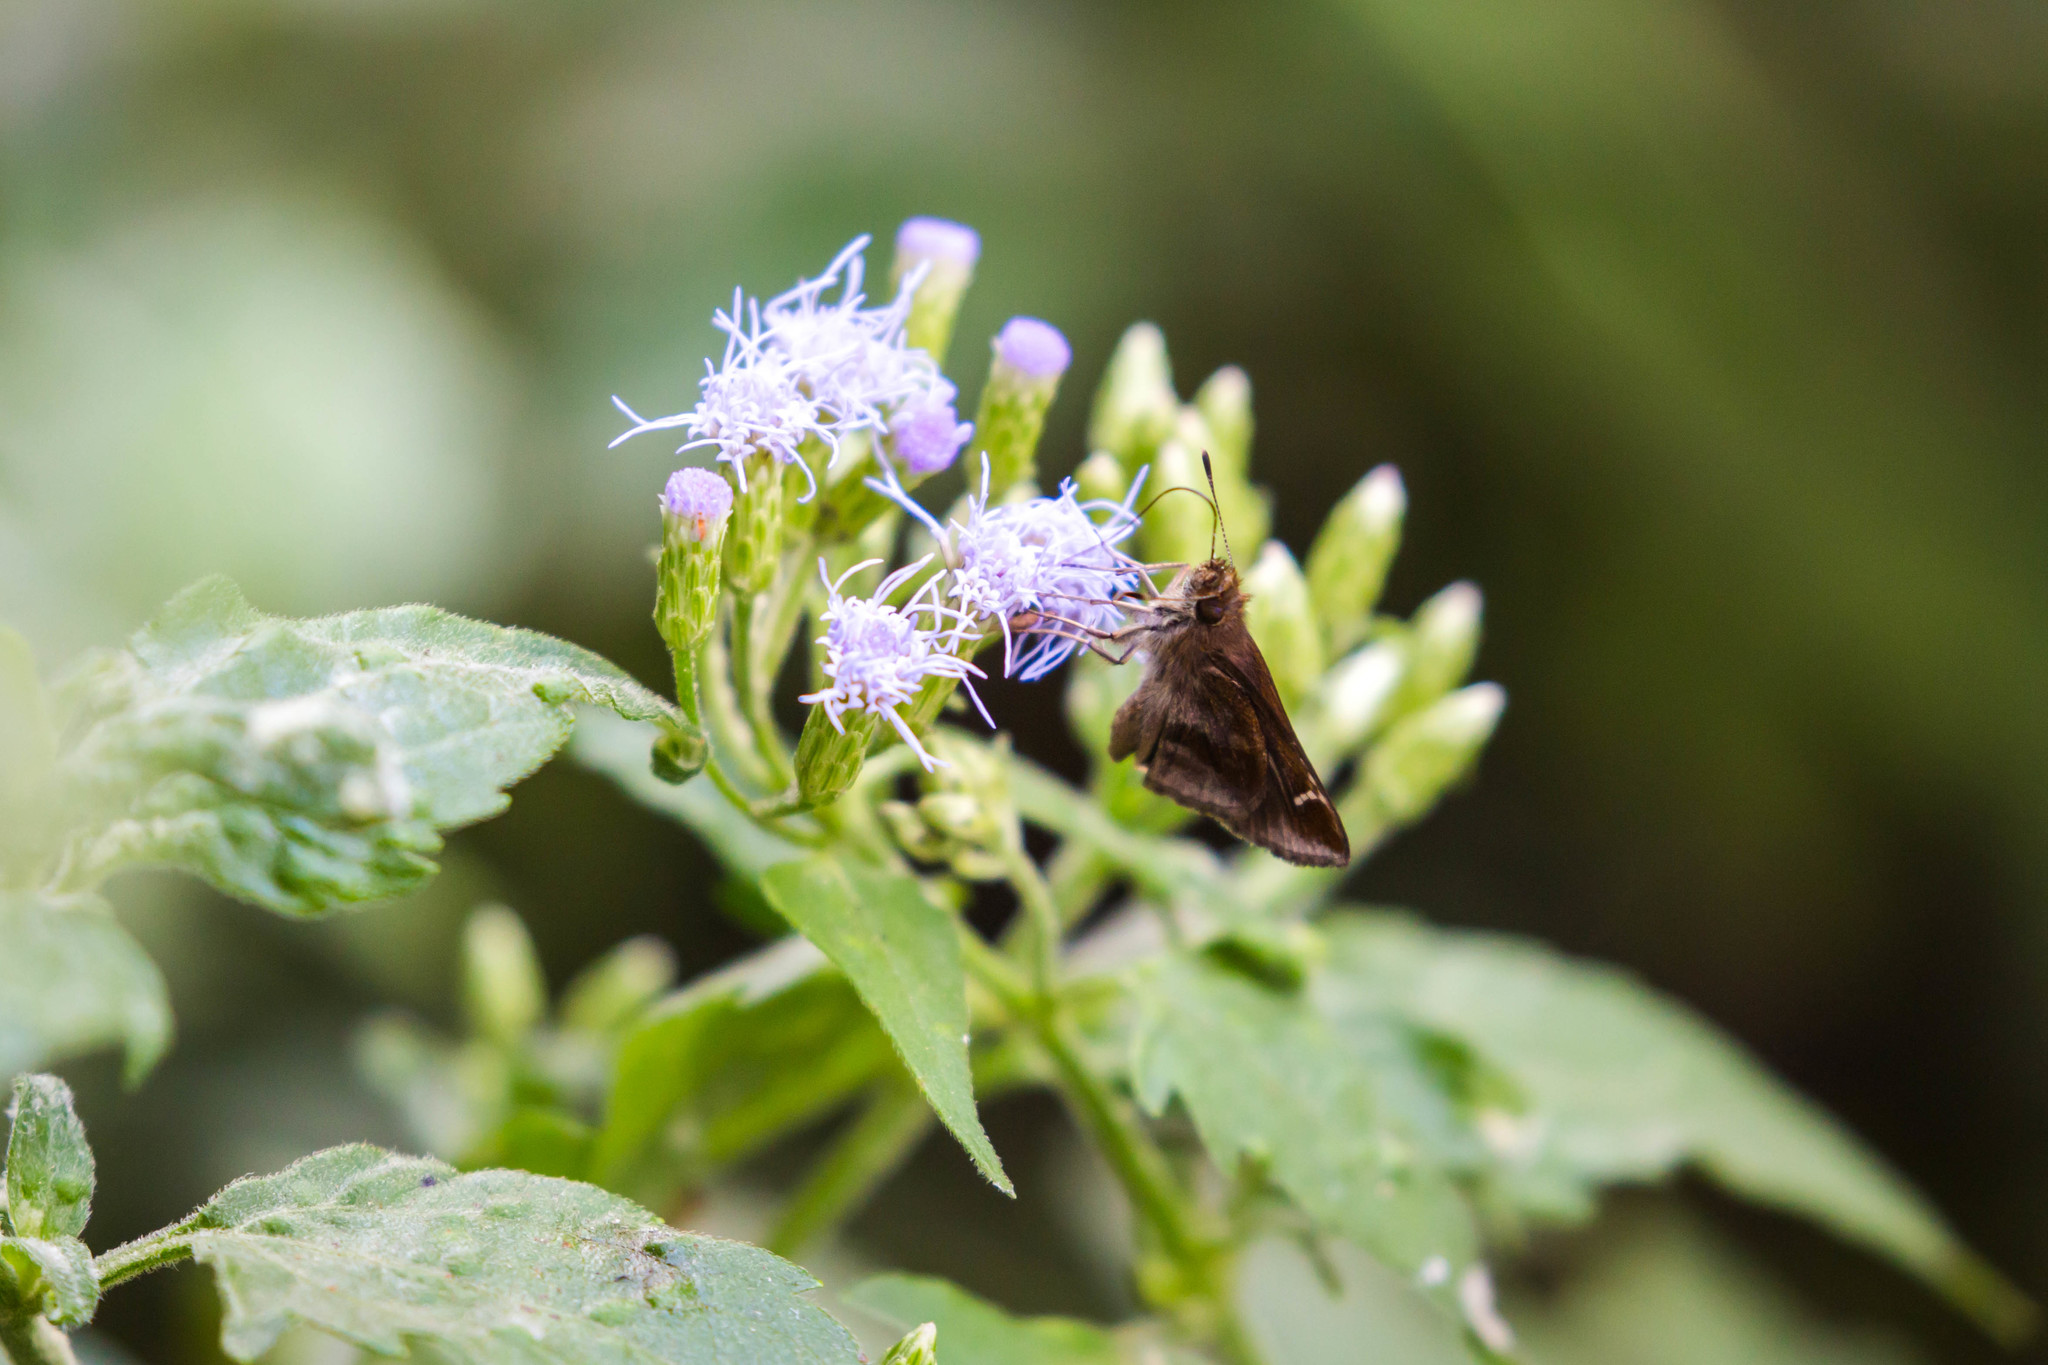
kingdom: Animalia
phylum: Arthropoda
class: Insecta
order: Lepidoptera
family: Hesperiidae
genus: Lerema
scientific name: Lerema accius
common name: Clouded skipper
